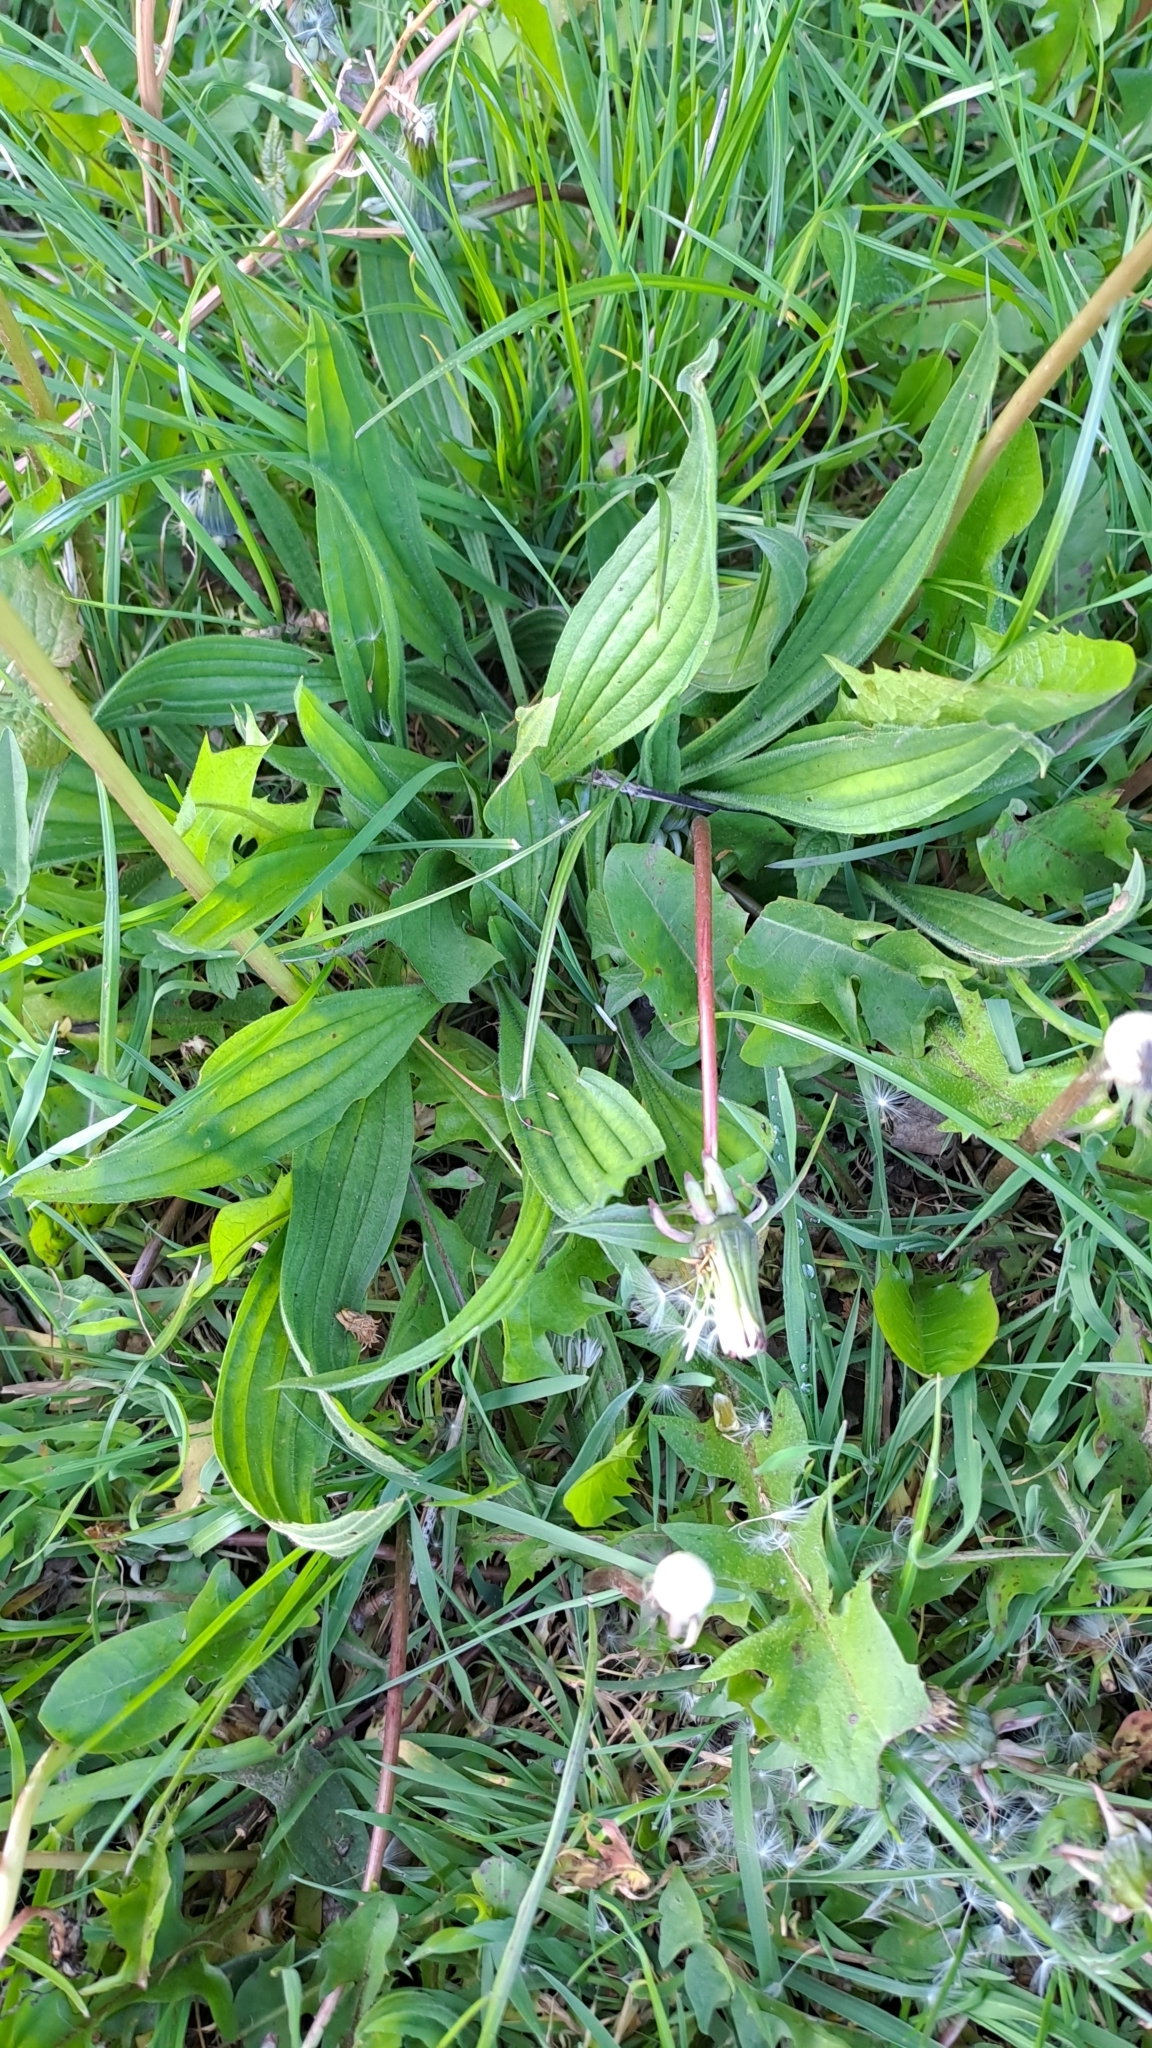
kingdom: Plantae
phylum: Tracheophyta
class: Magnoliopsida
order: Lamiales
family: Plantaginaceae
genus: Plantago
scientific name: Plantago lanceolata
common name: Ribwort plantain
